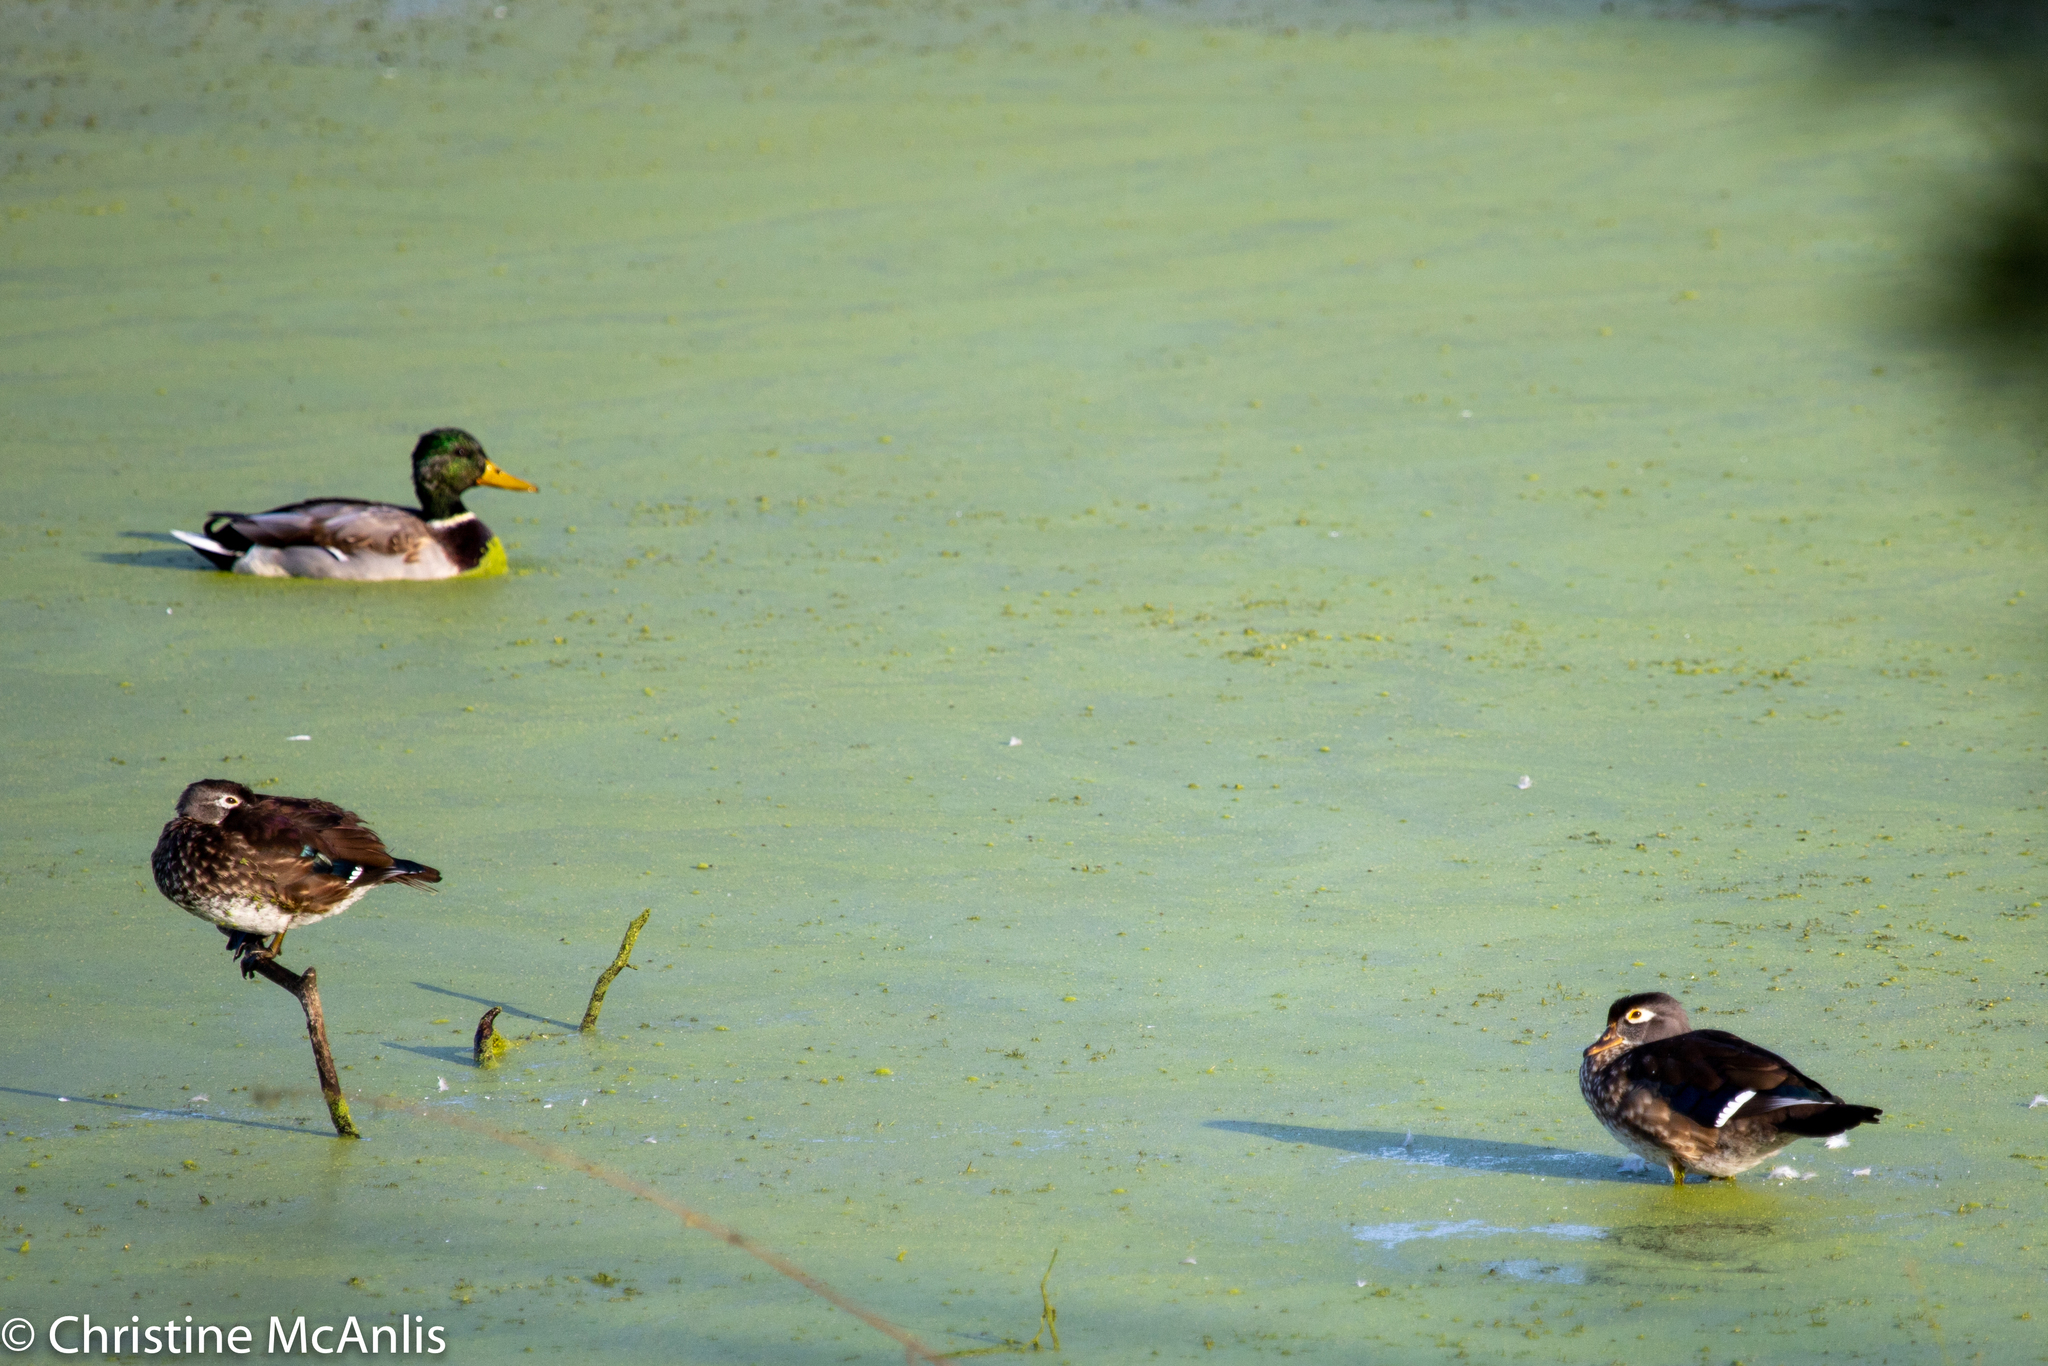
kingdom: Animalia
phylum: Chordata
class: Aves
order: Anseriformes
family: Anatidae
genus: Aix
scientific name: Aix sponsa
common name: Wood duck
